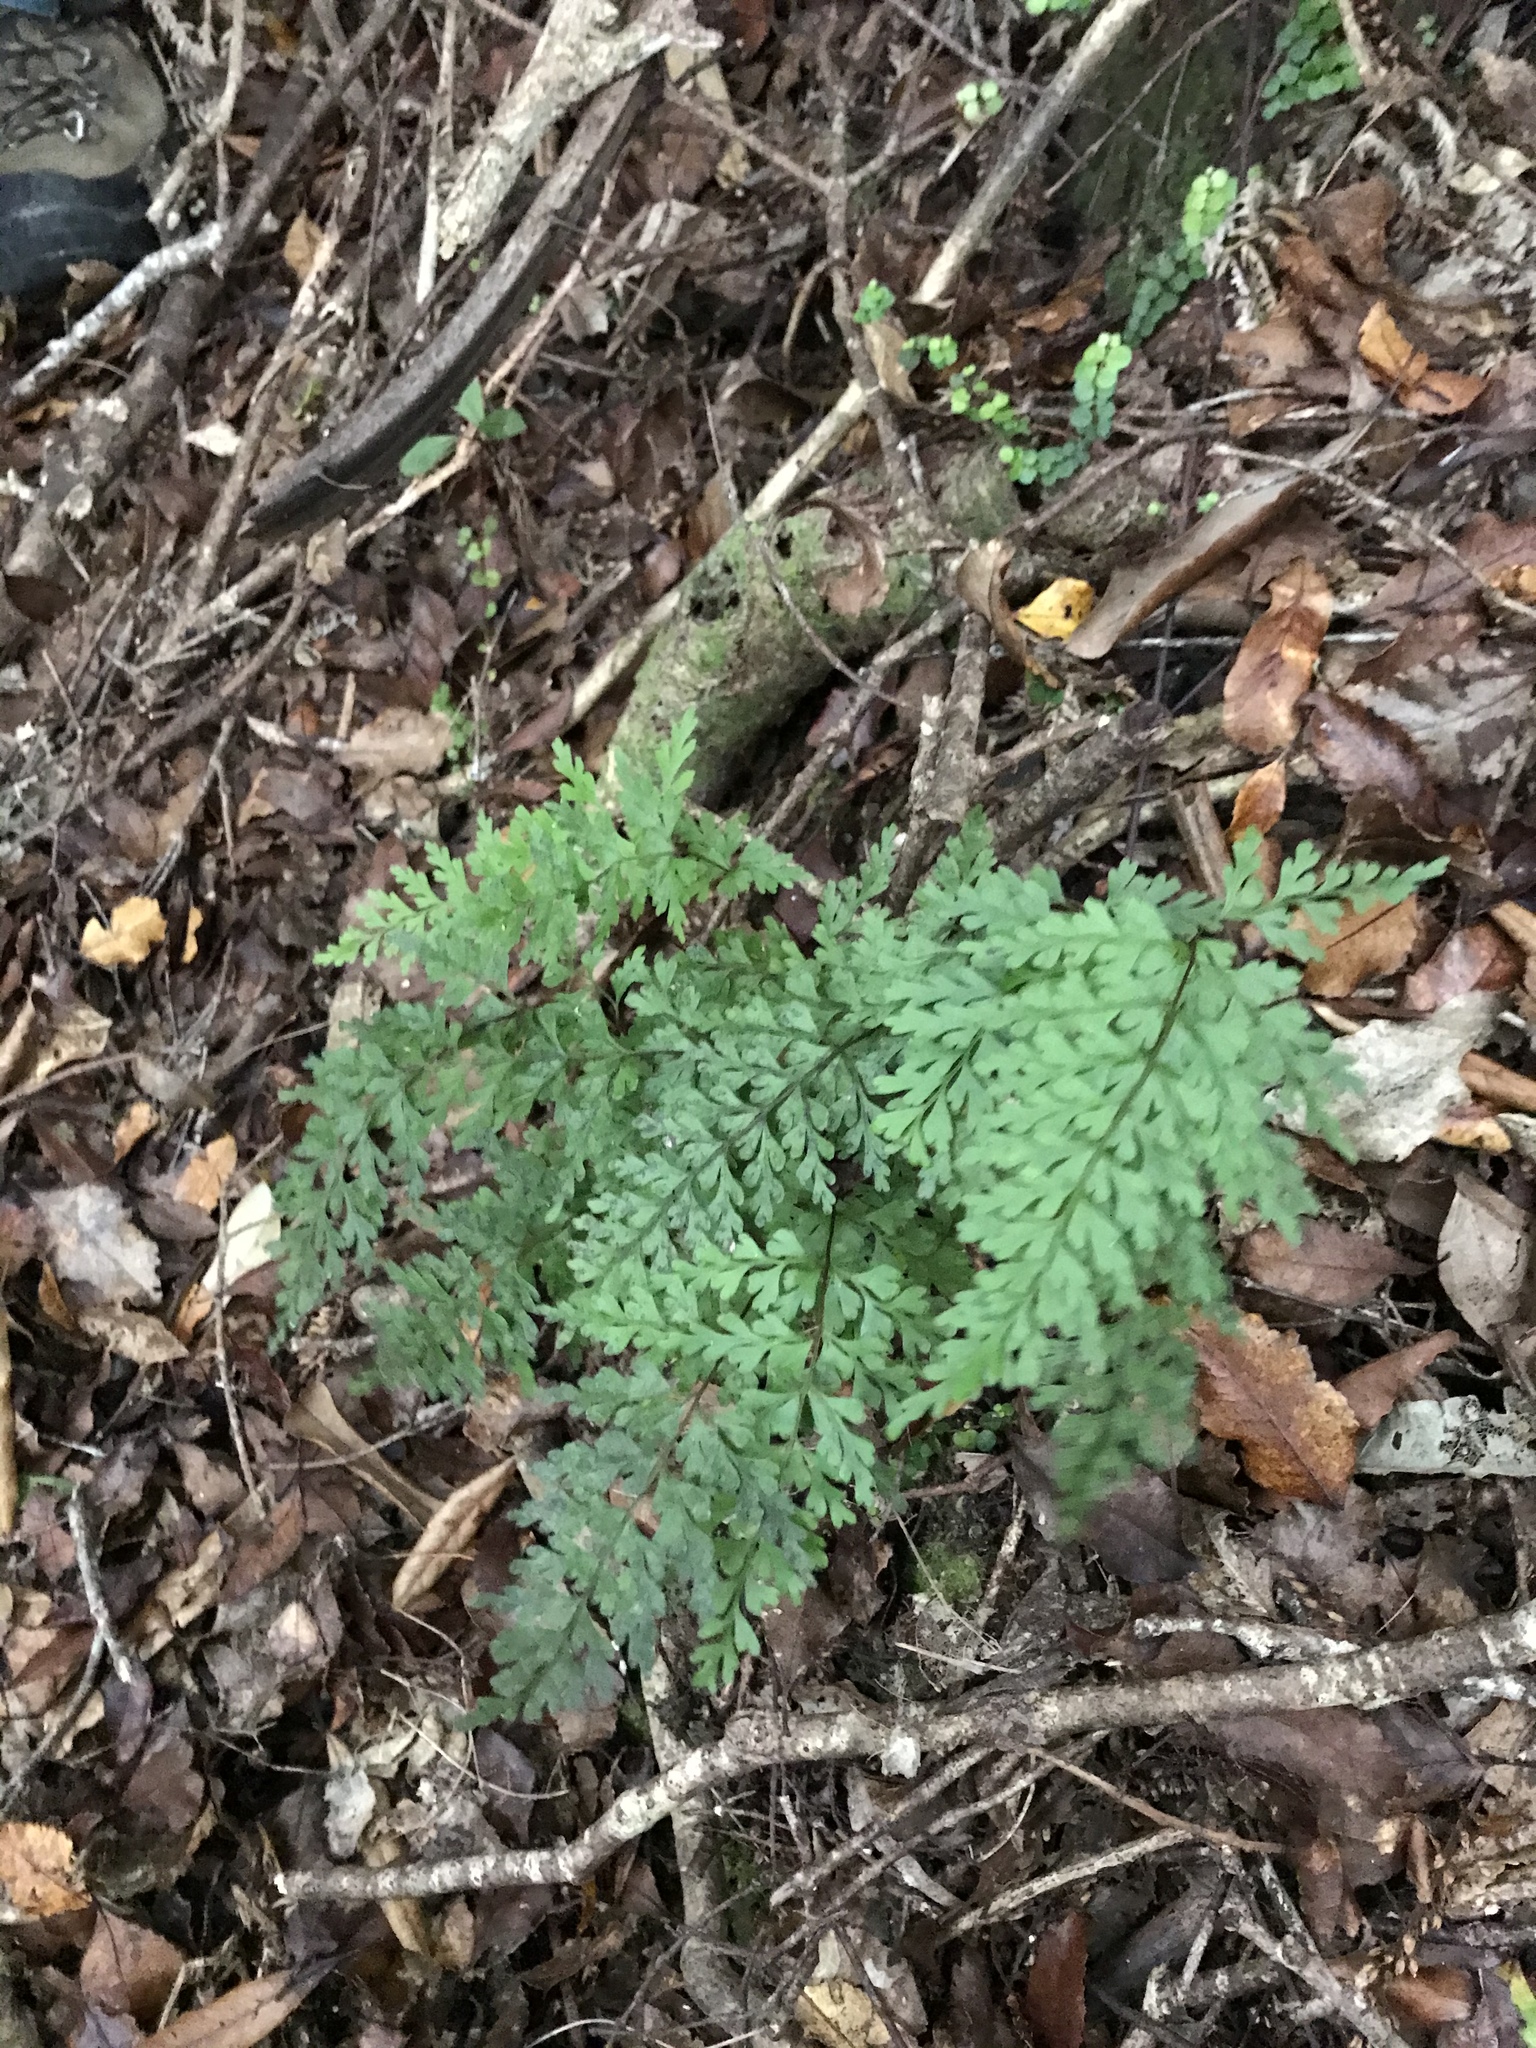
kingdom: Plantae
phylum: Tracheophyta
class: Polypodiopsida
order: Polypodiales
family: Lindsaeaceae
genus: Lindsaea
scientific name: Lindsaea trichomanoides
